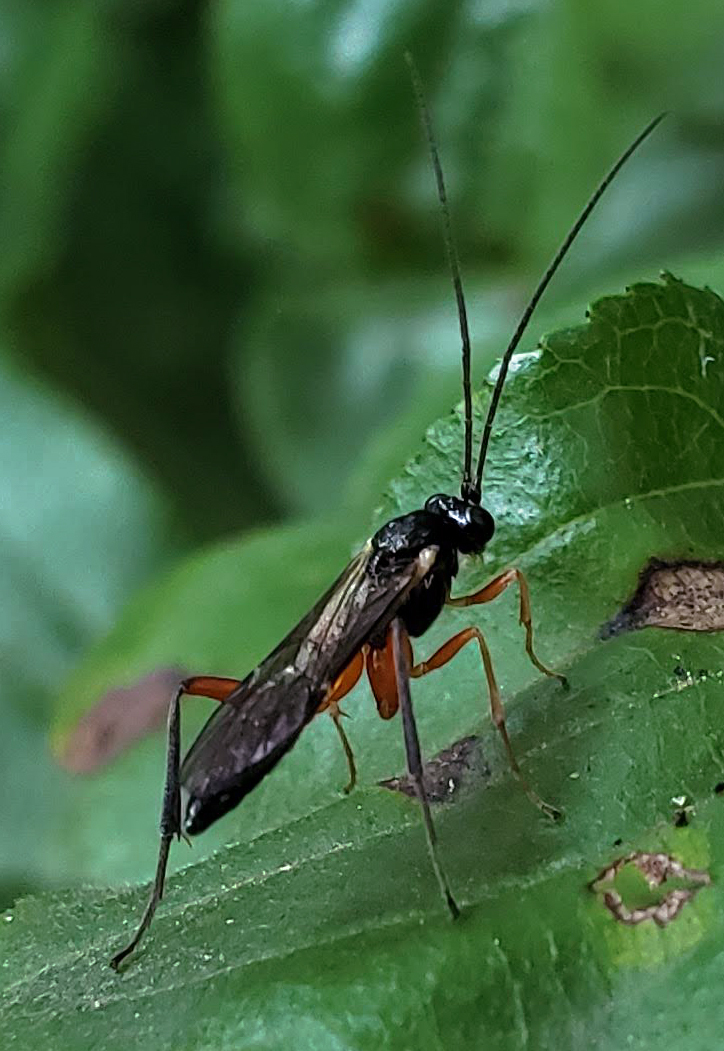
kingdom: Animalia
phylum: Arthropoda
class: Insecta
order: Hymenoptera
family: Ichneumonidae
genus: Cylloceria
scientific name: Cylloceria melancholica
